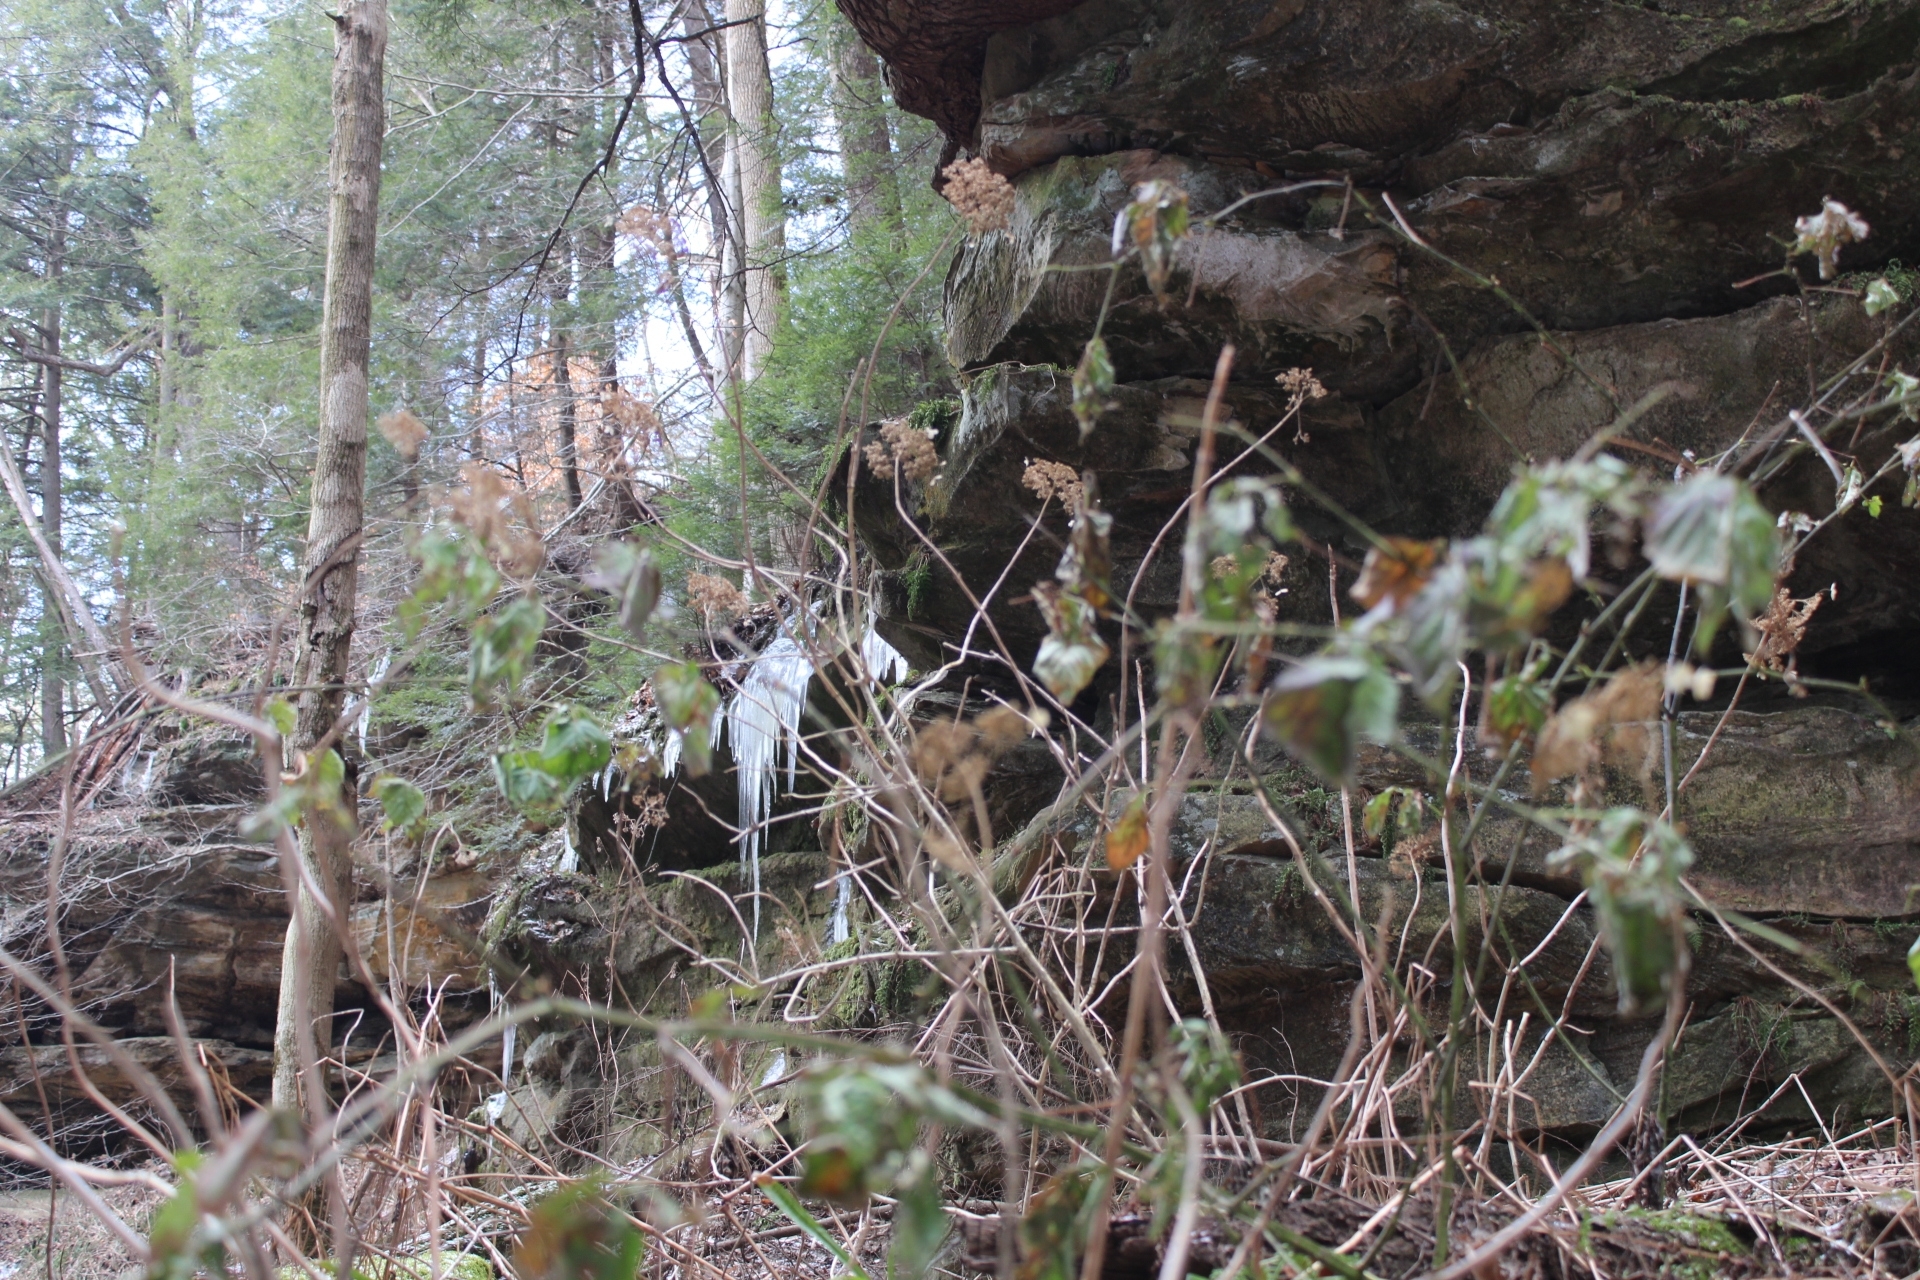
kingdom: Plantae
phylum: Tracheophyta
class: Magnoliopsida
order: Cornales
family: Hydrangeaceae
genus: Hydrangea
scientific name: Hydrangea arborescens
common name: Sevenbark
